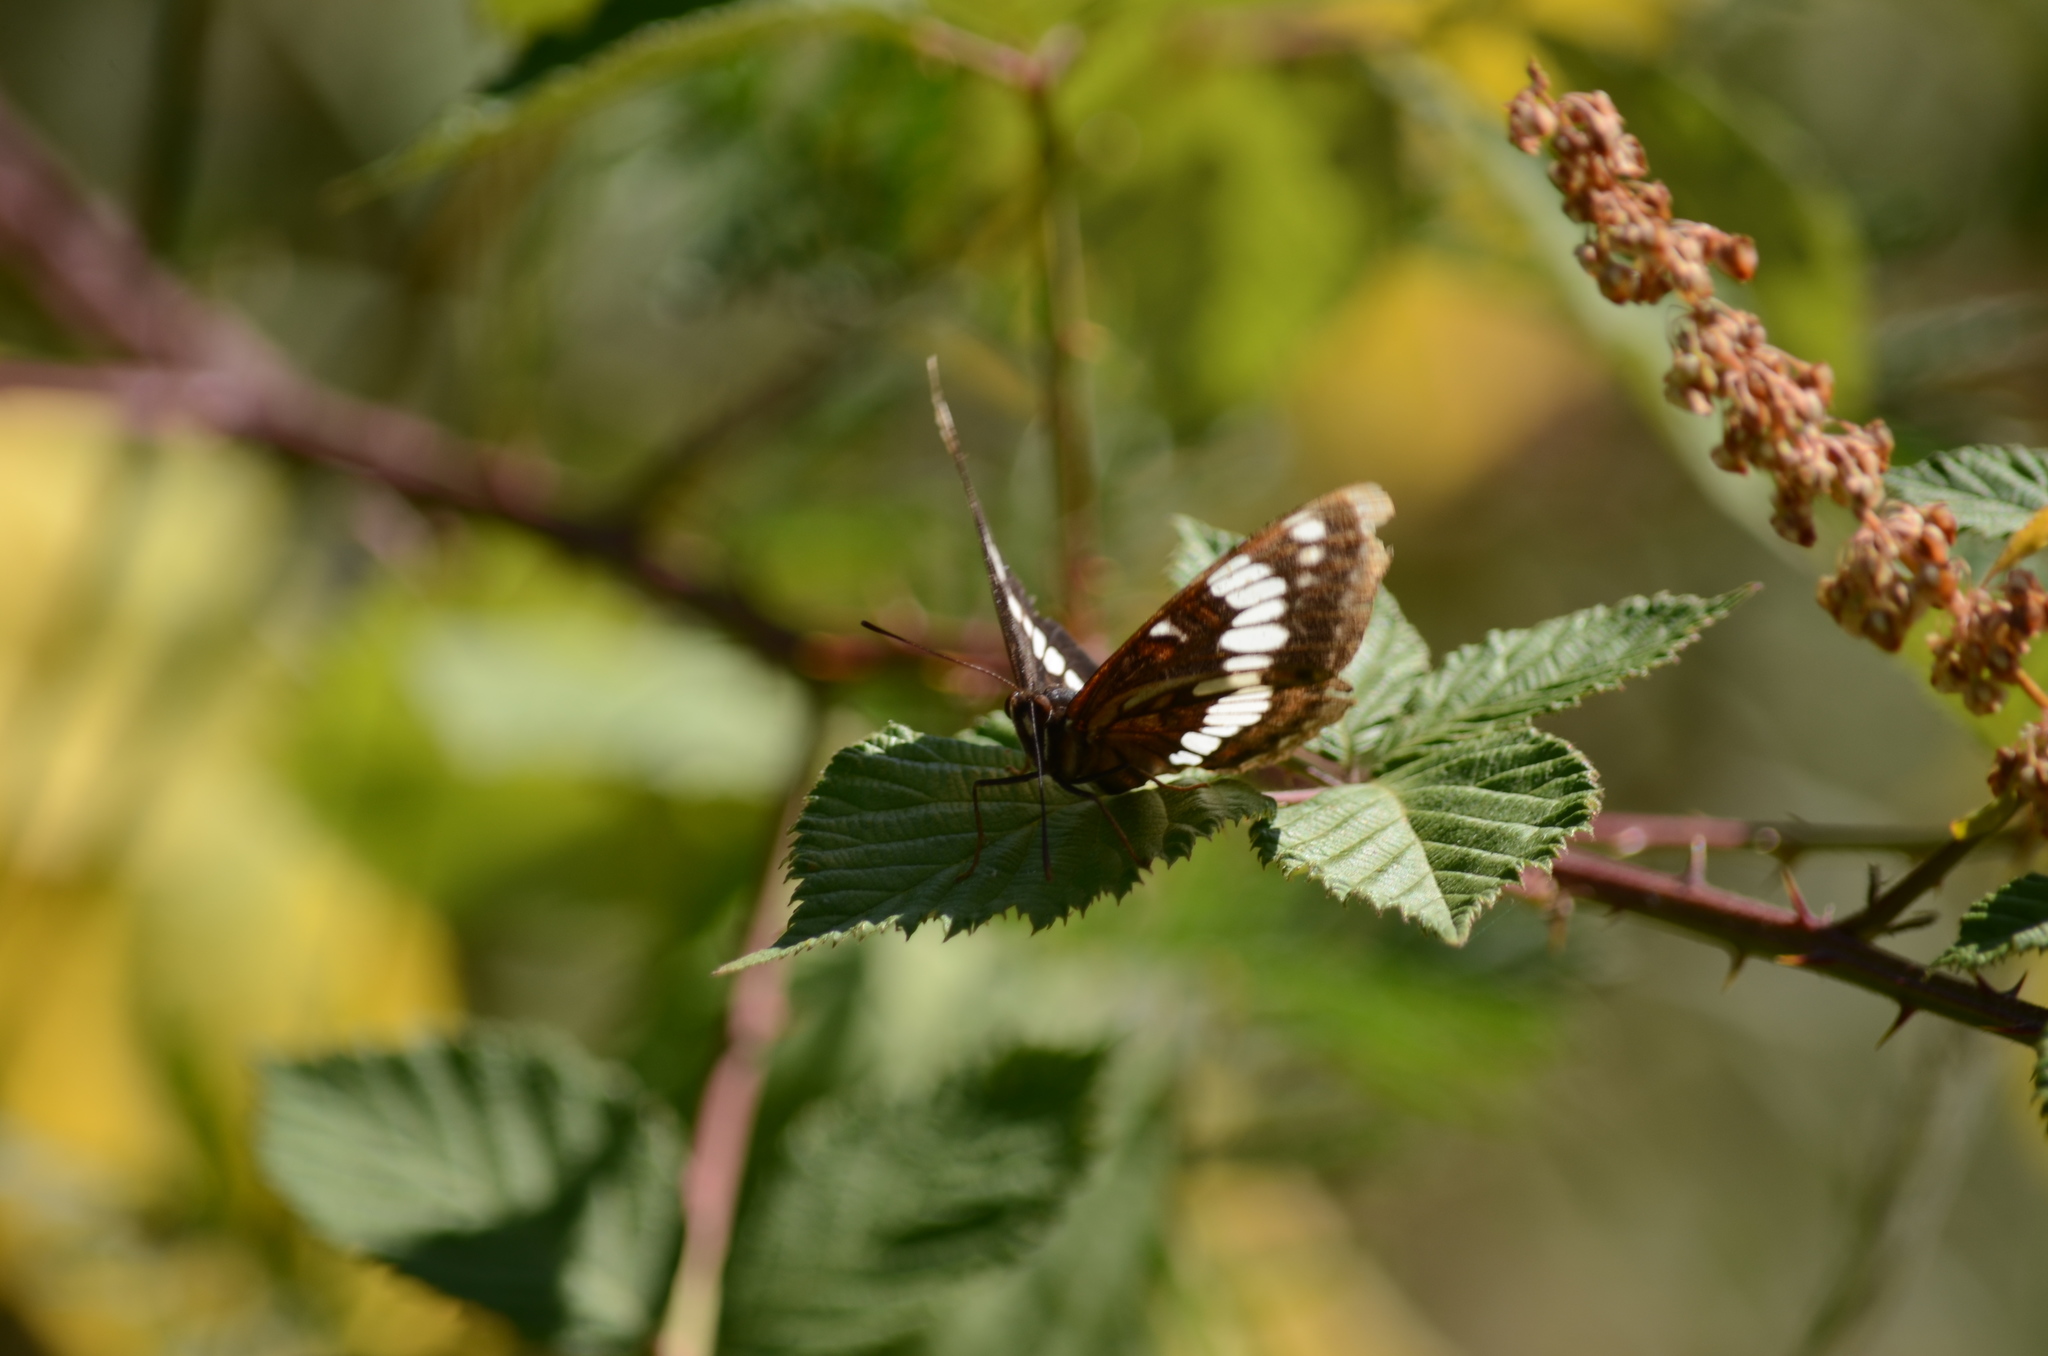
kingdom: Animalia
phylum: Arthropoda
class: Insecta
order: Lepidoptera
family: Nymphalidae
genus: Limenitis
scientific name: Limenitis lorquini
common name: Lorquin's admiral
